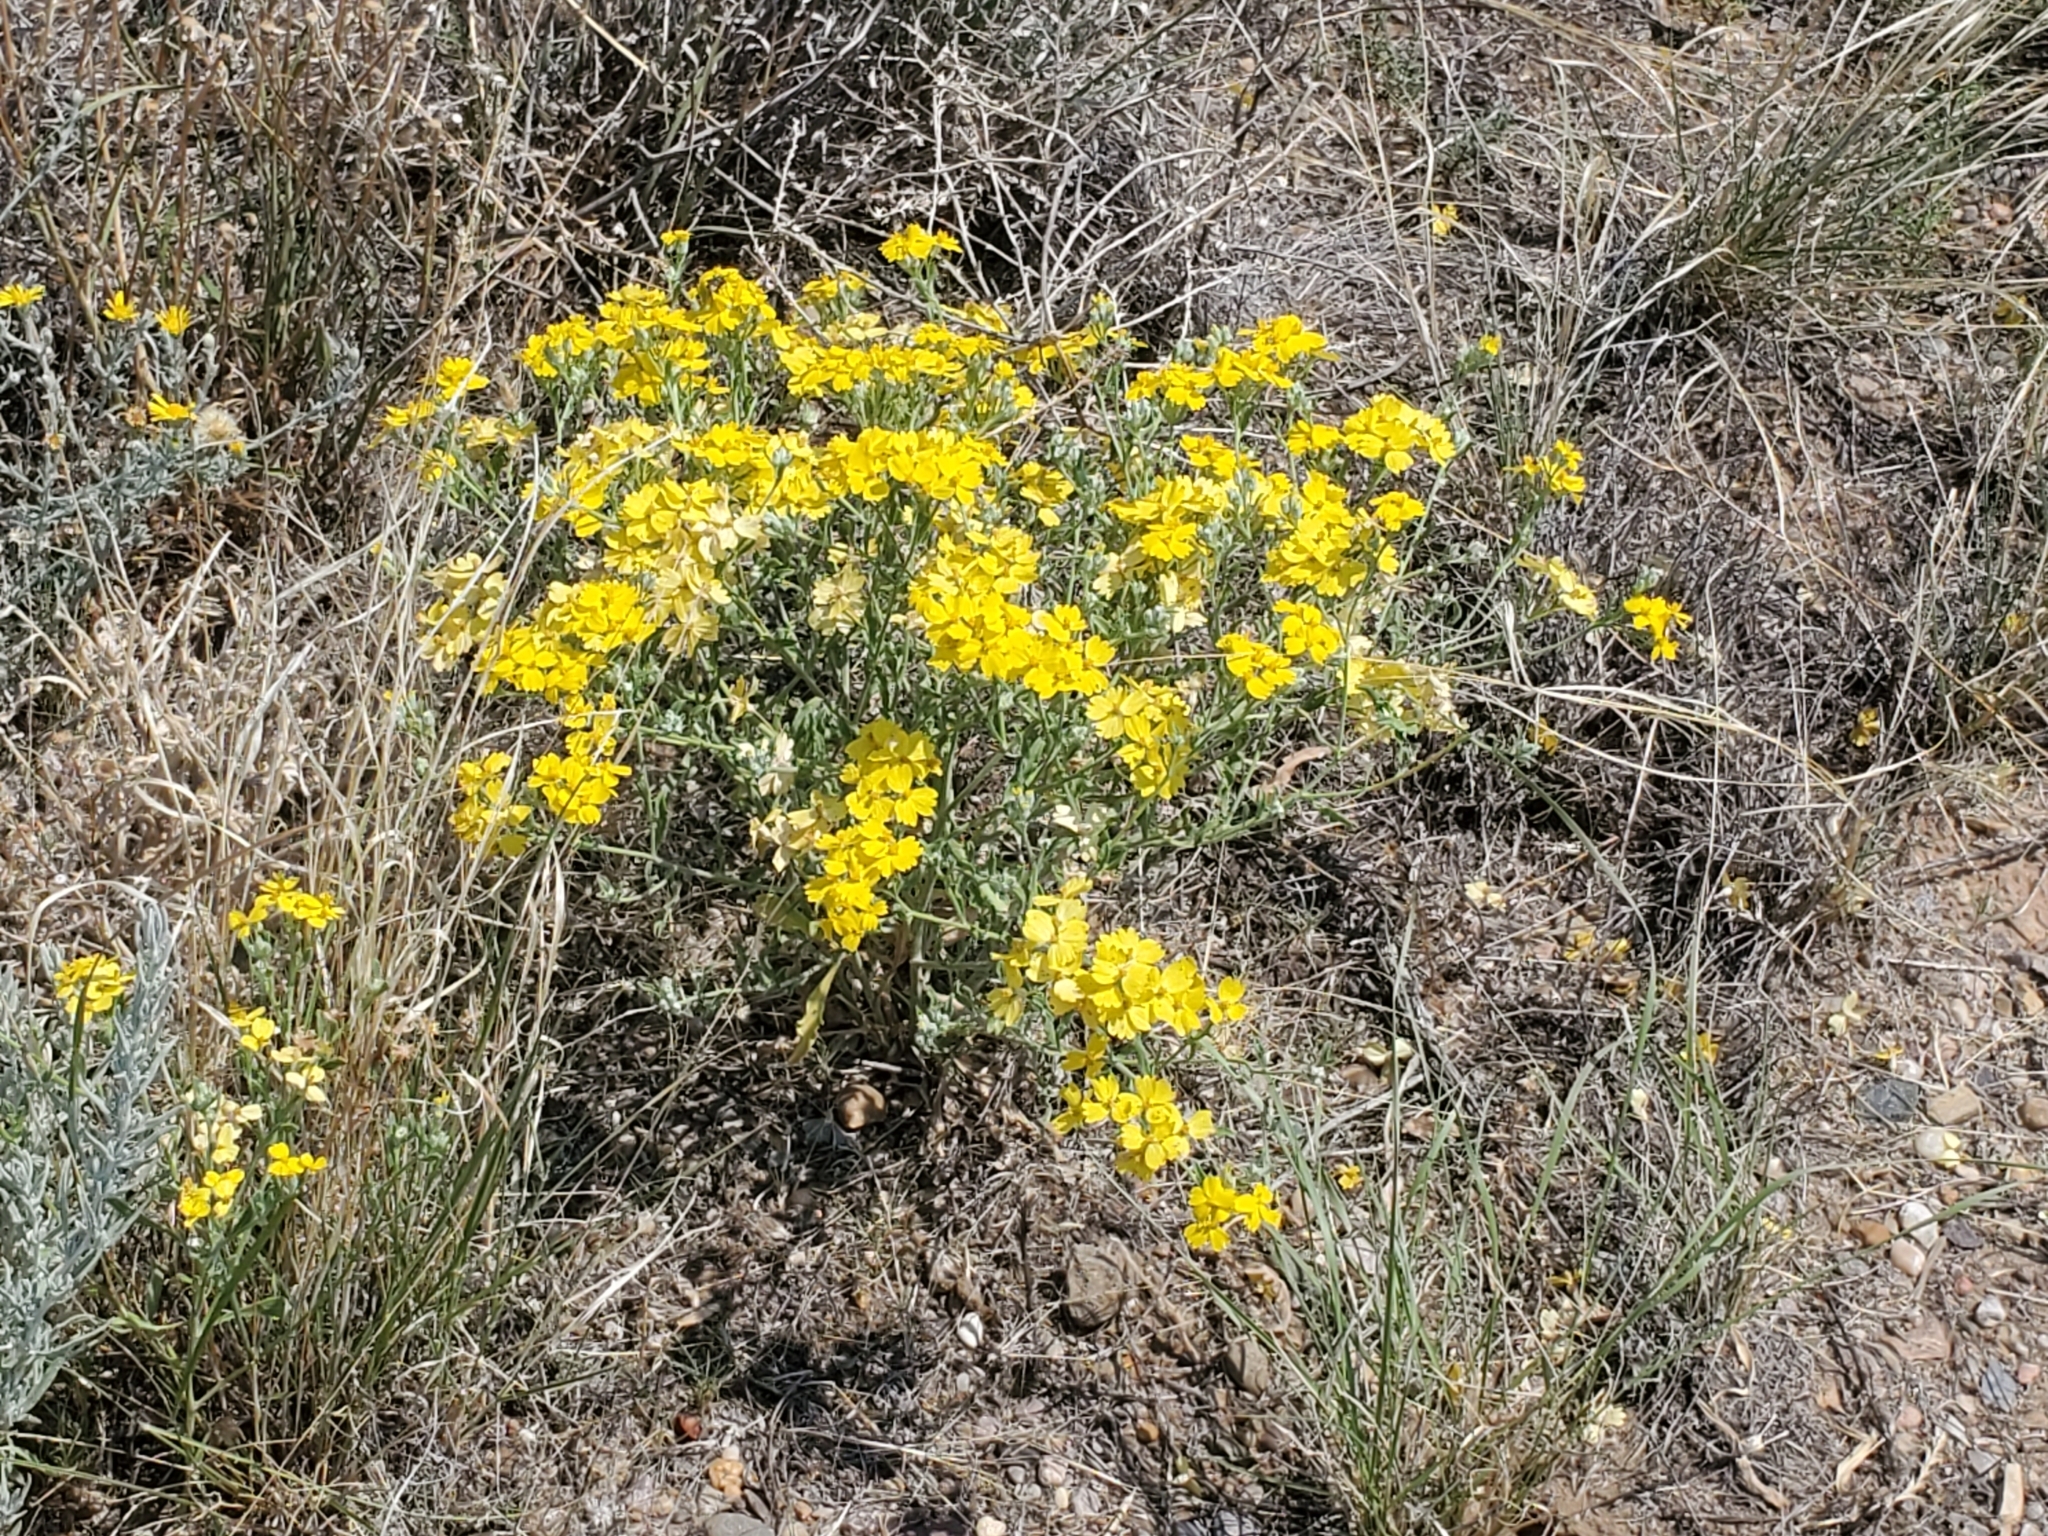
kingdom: Plantae
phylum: Tracheophyta
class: Magnoliopsida
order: Asterales
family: Asteraceae
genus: Psilostrophe
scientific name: Psilostrophe tagetina
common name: Marigold paper-flower
